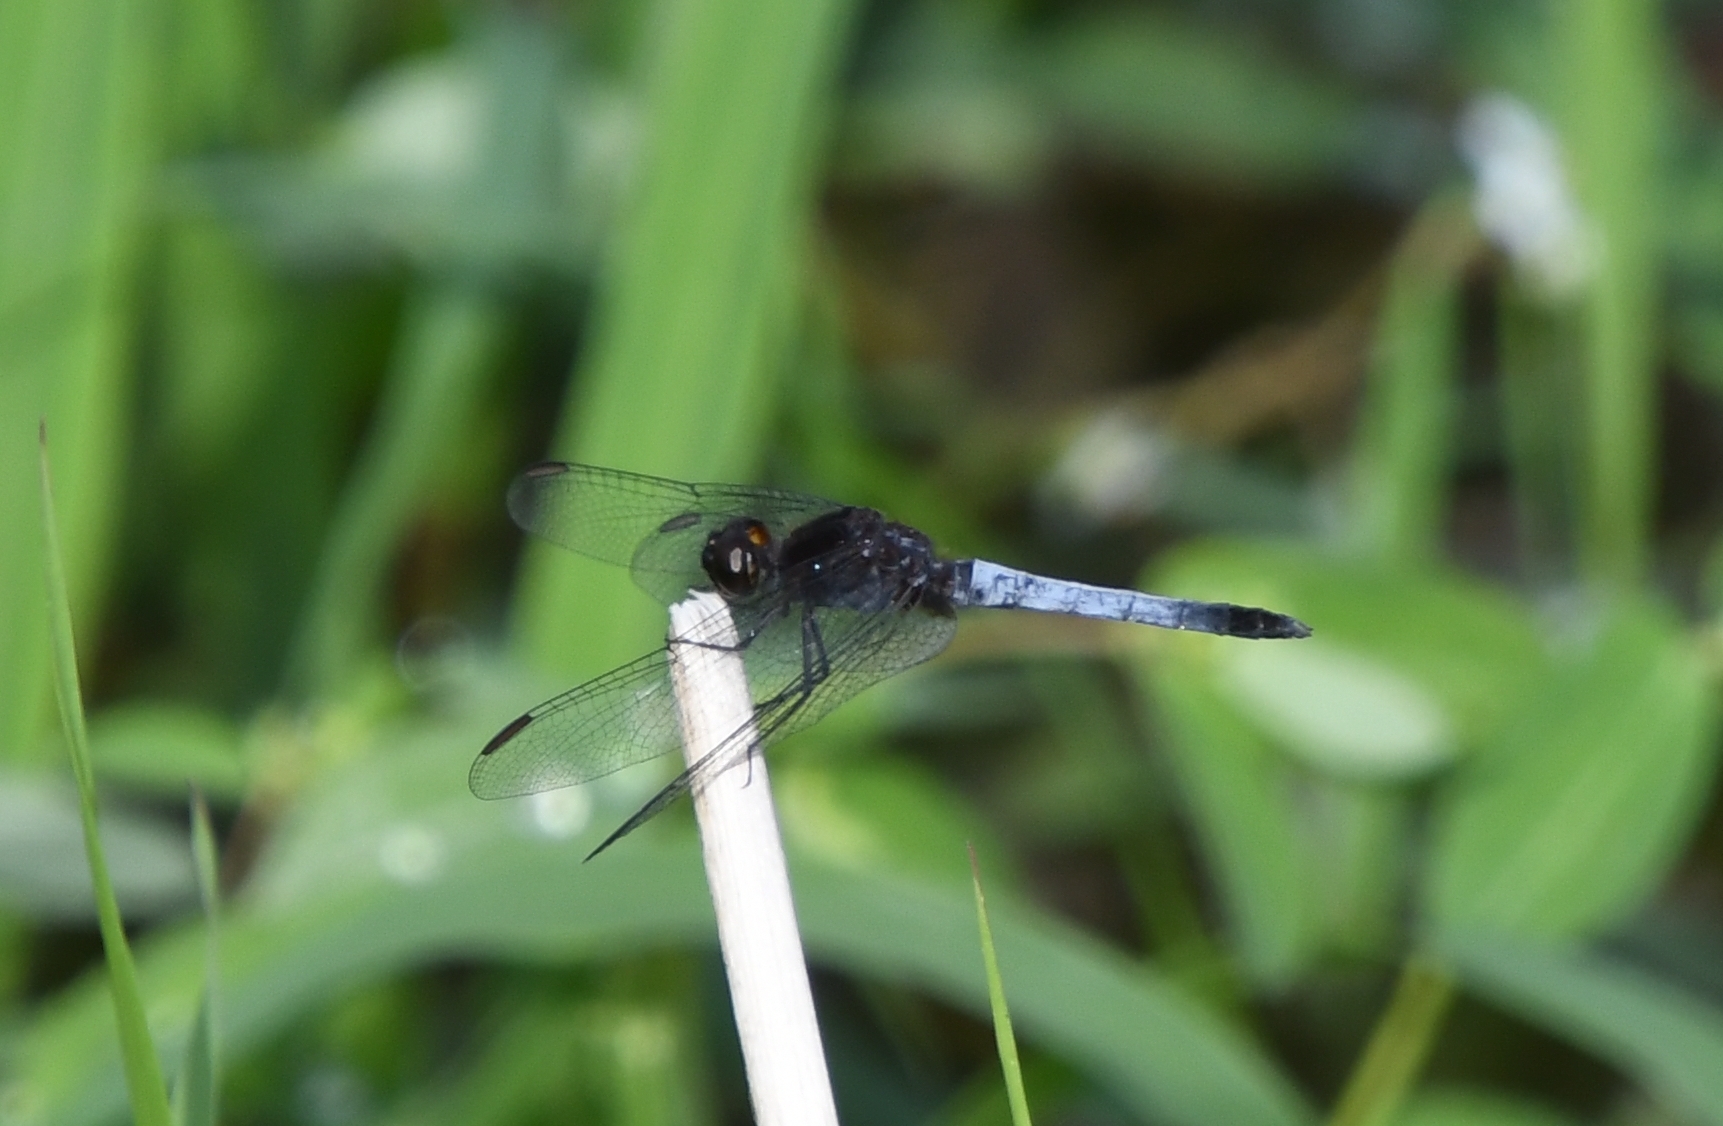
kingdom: Animalia
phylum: Arthropoda
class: Insecta
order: Odonata
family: Libellulidae
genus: Erythrodiplax
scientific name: Erythrodiplax basifusca
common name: Plateau dragonlet
